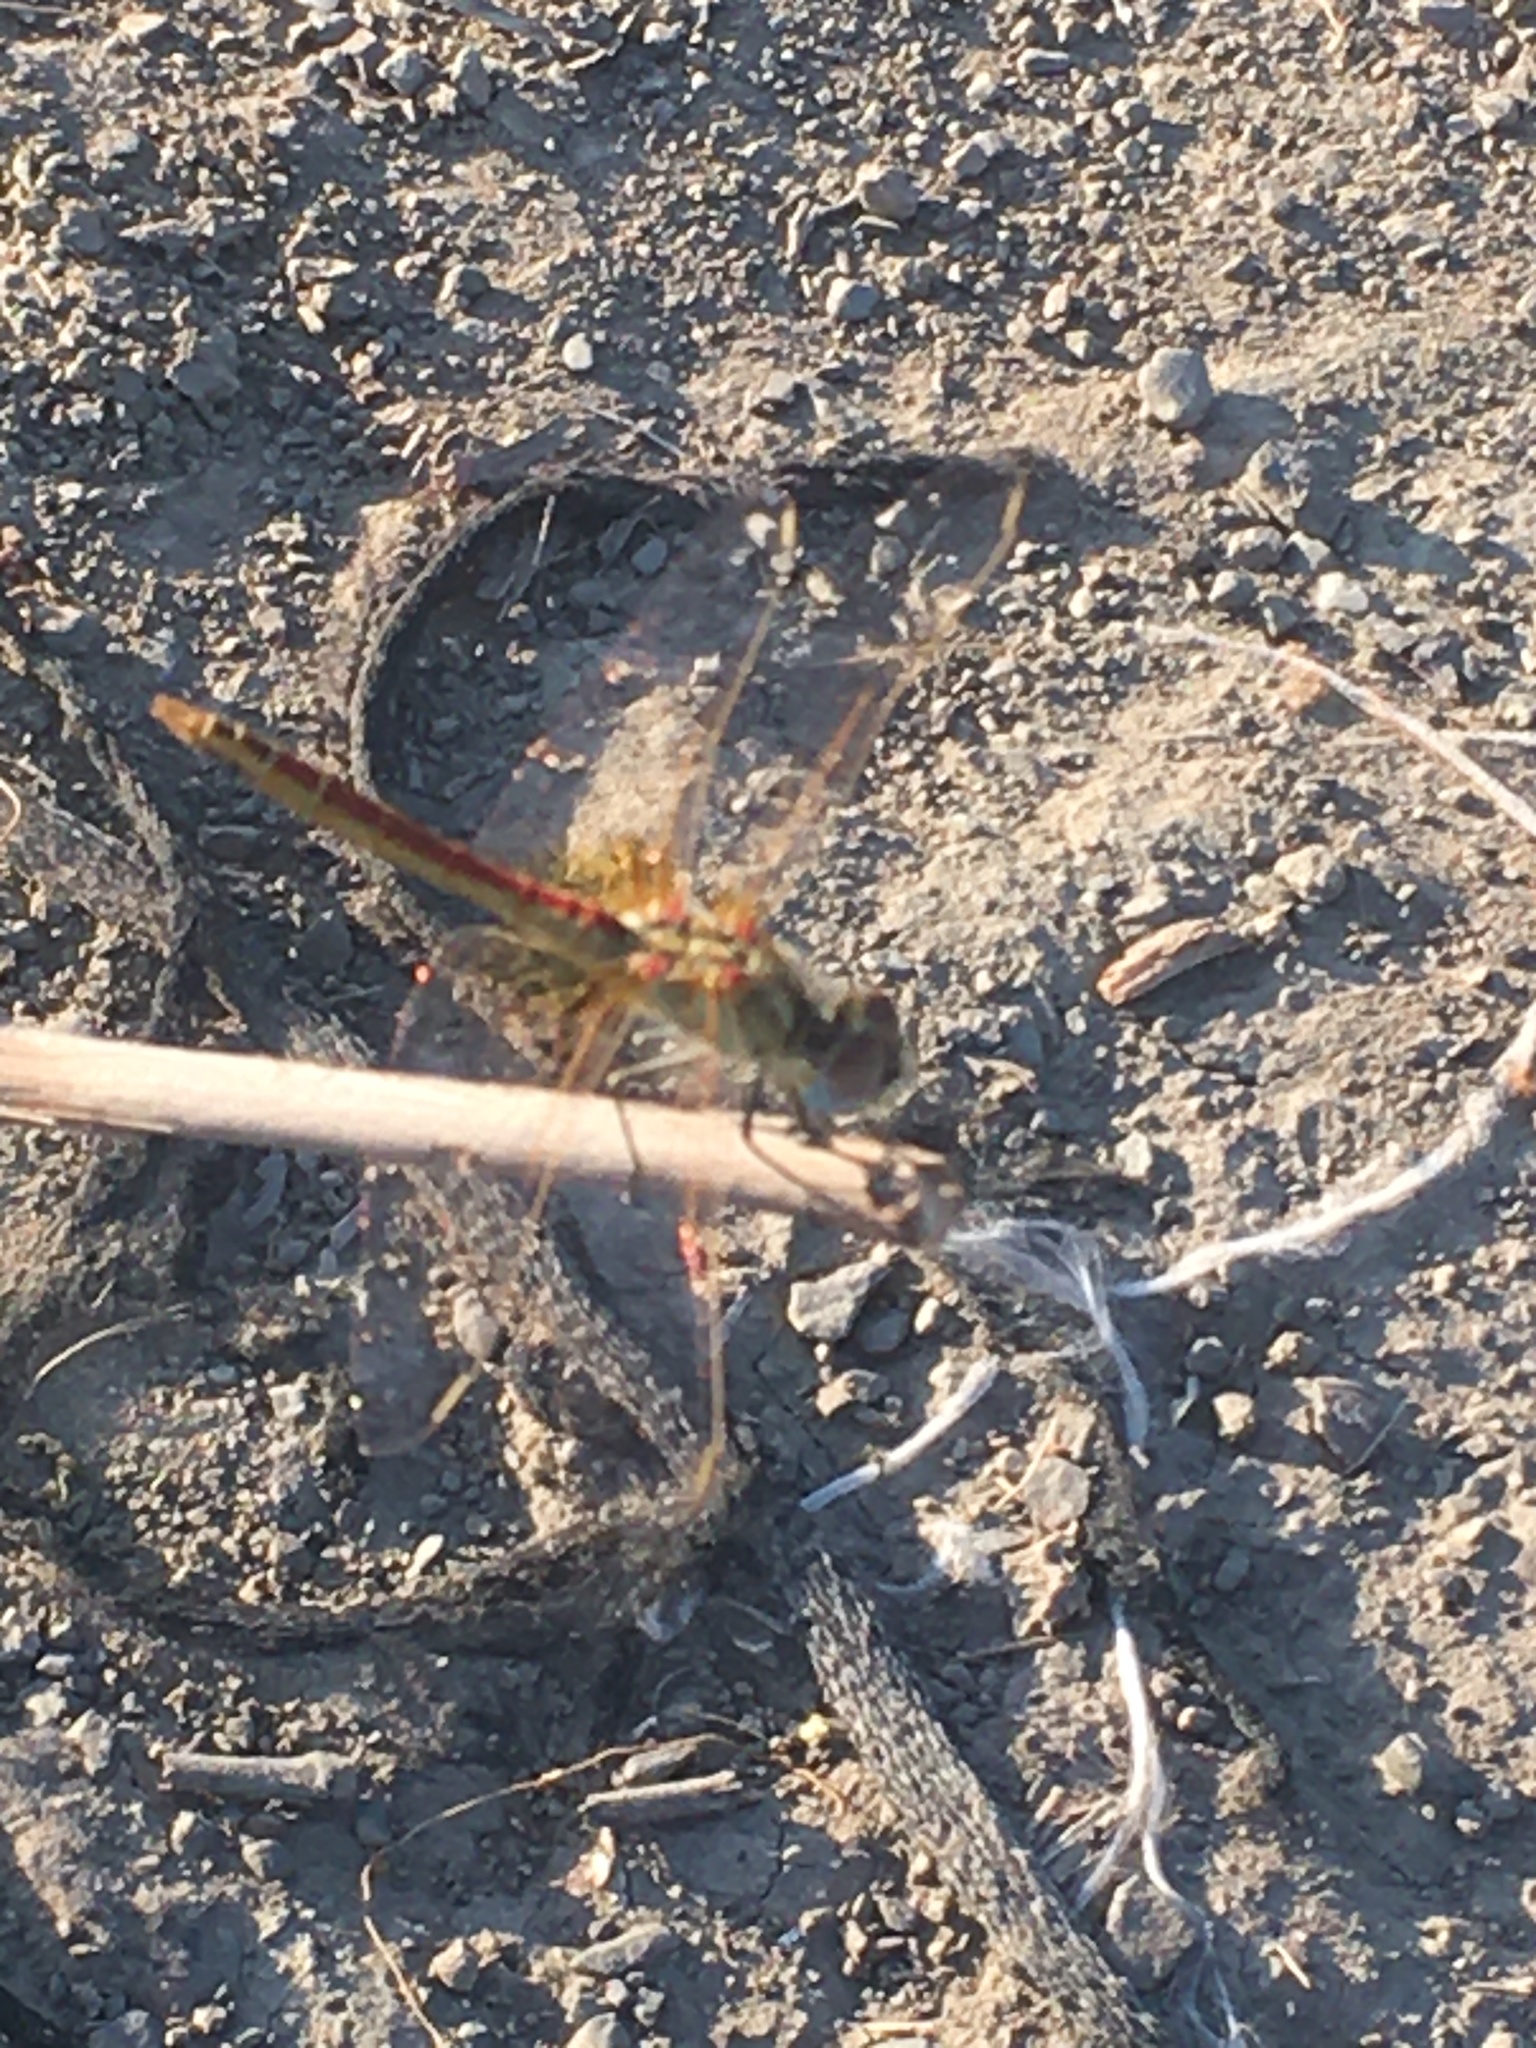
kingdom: Animalia
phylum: Arthropoda
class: Insecta
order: Odonata
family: Libellulidae
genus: Sympetrum
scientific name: Sympetrum fonscolombii
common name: Red-veined darter
